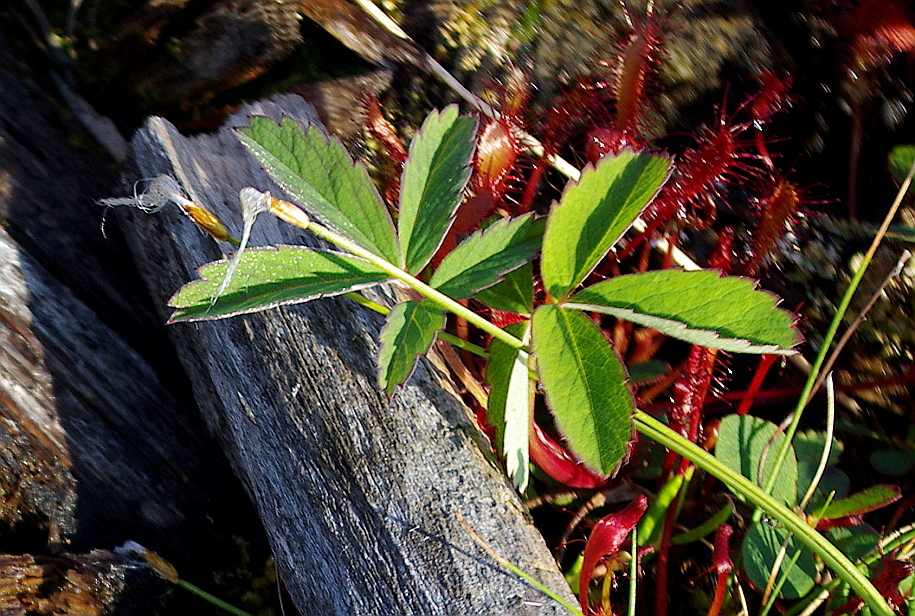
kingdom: Plantae
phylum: Tracheophyta
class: Magnoliopsida
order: Rosales
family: Rosaceae
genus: Comarum
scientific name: Comarum palustre
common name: Marsh cinquefoil
